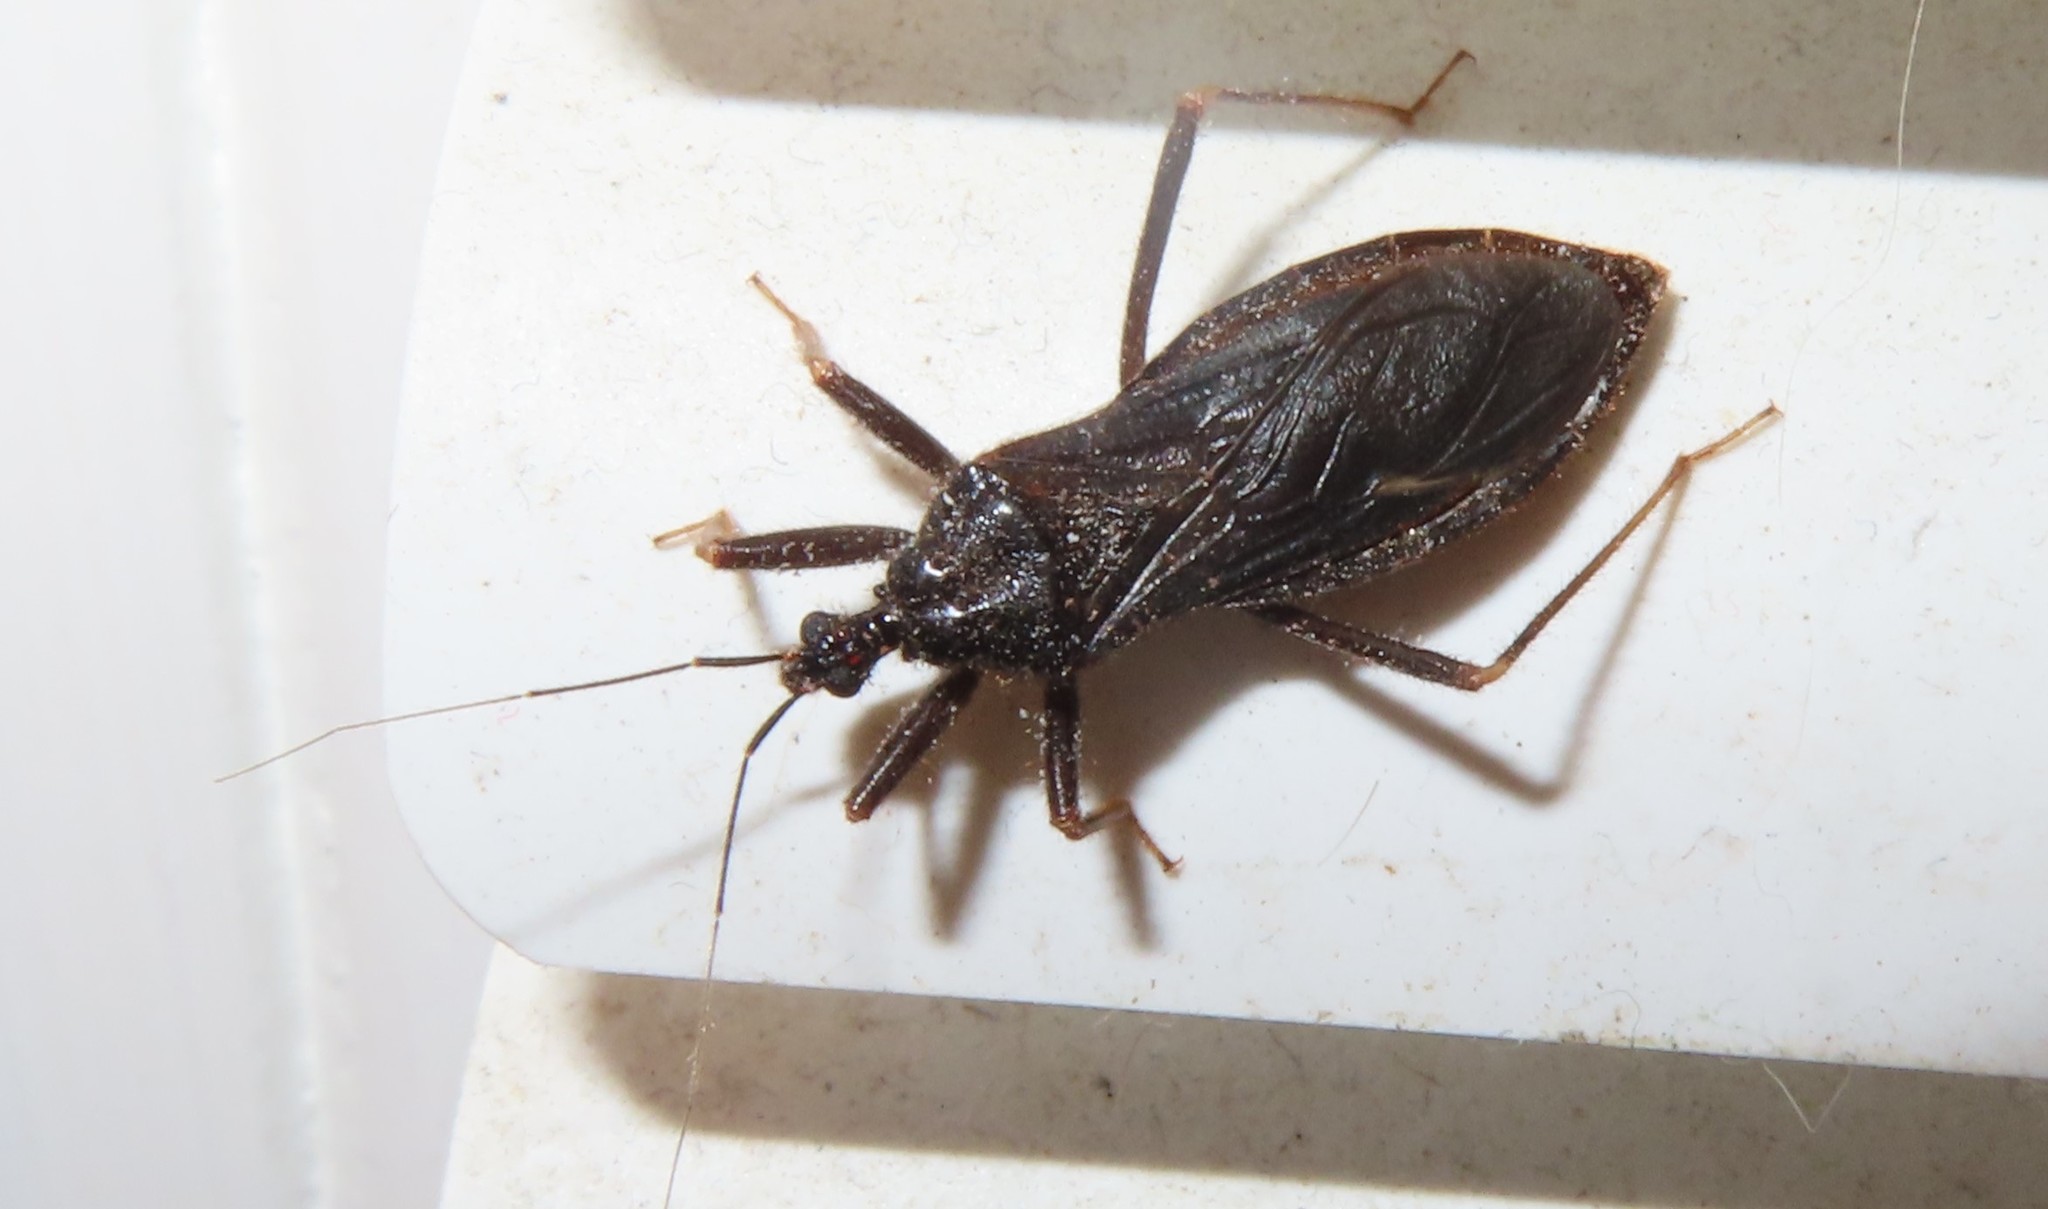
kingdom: Animalia
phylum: Arthropoda
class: Insecta
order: Hemiptera
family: Reduviidae
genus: Reduvius
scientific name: Reduvius personatus
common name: Masked hunter
